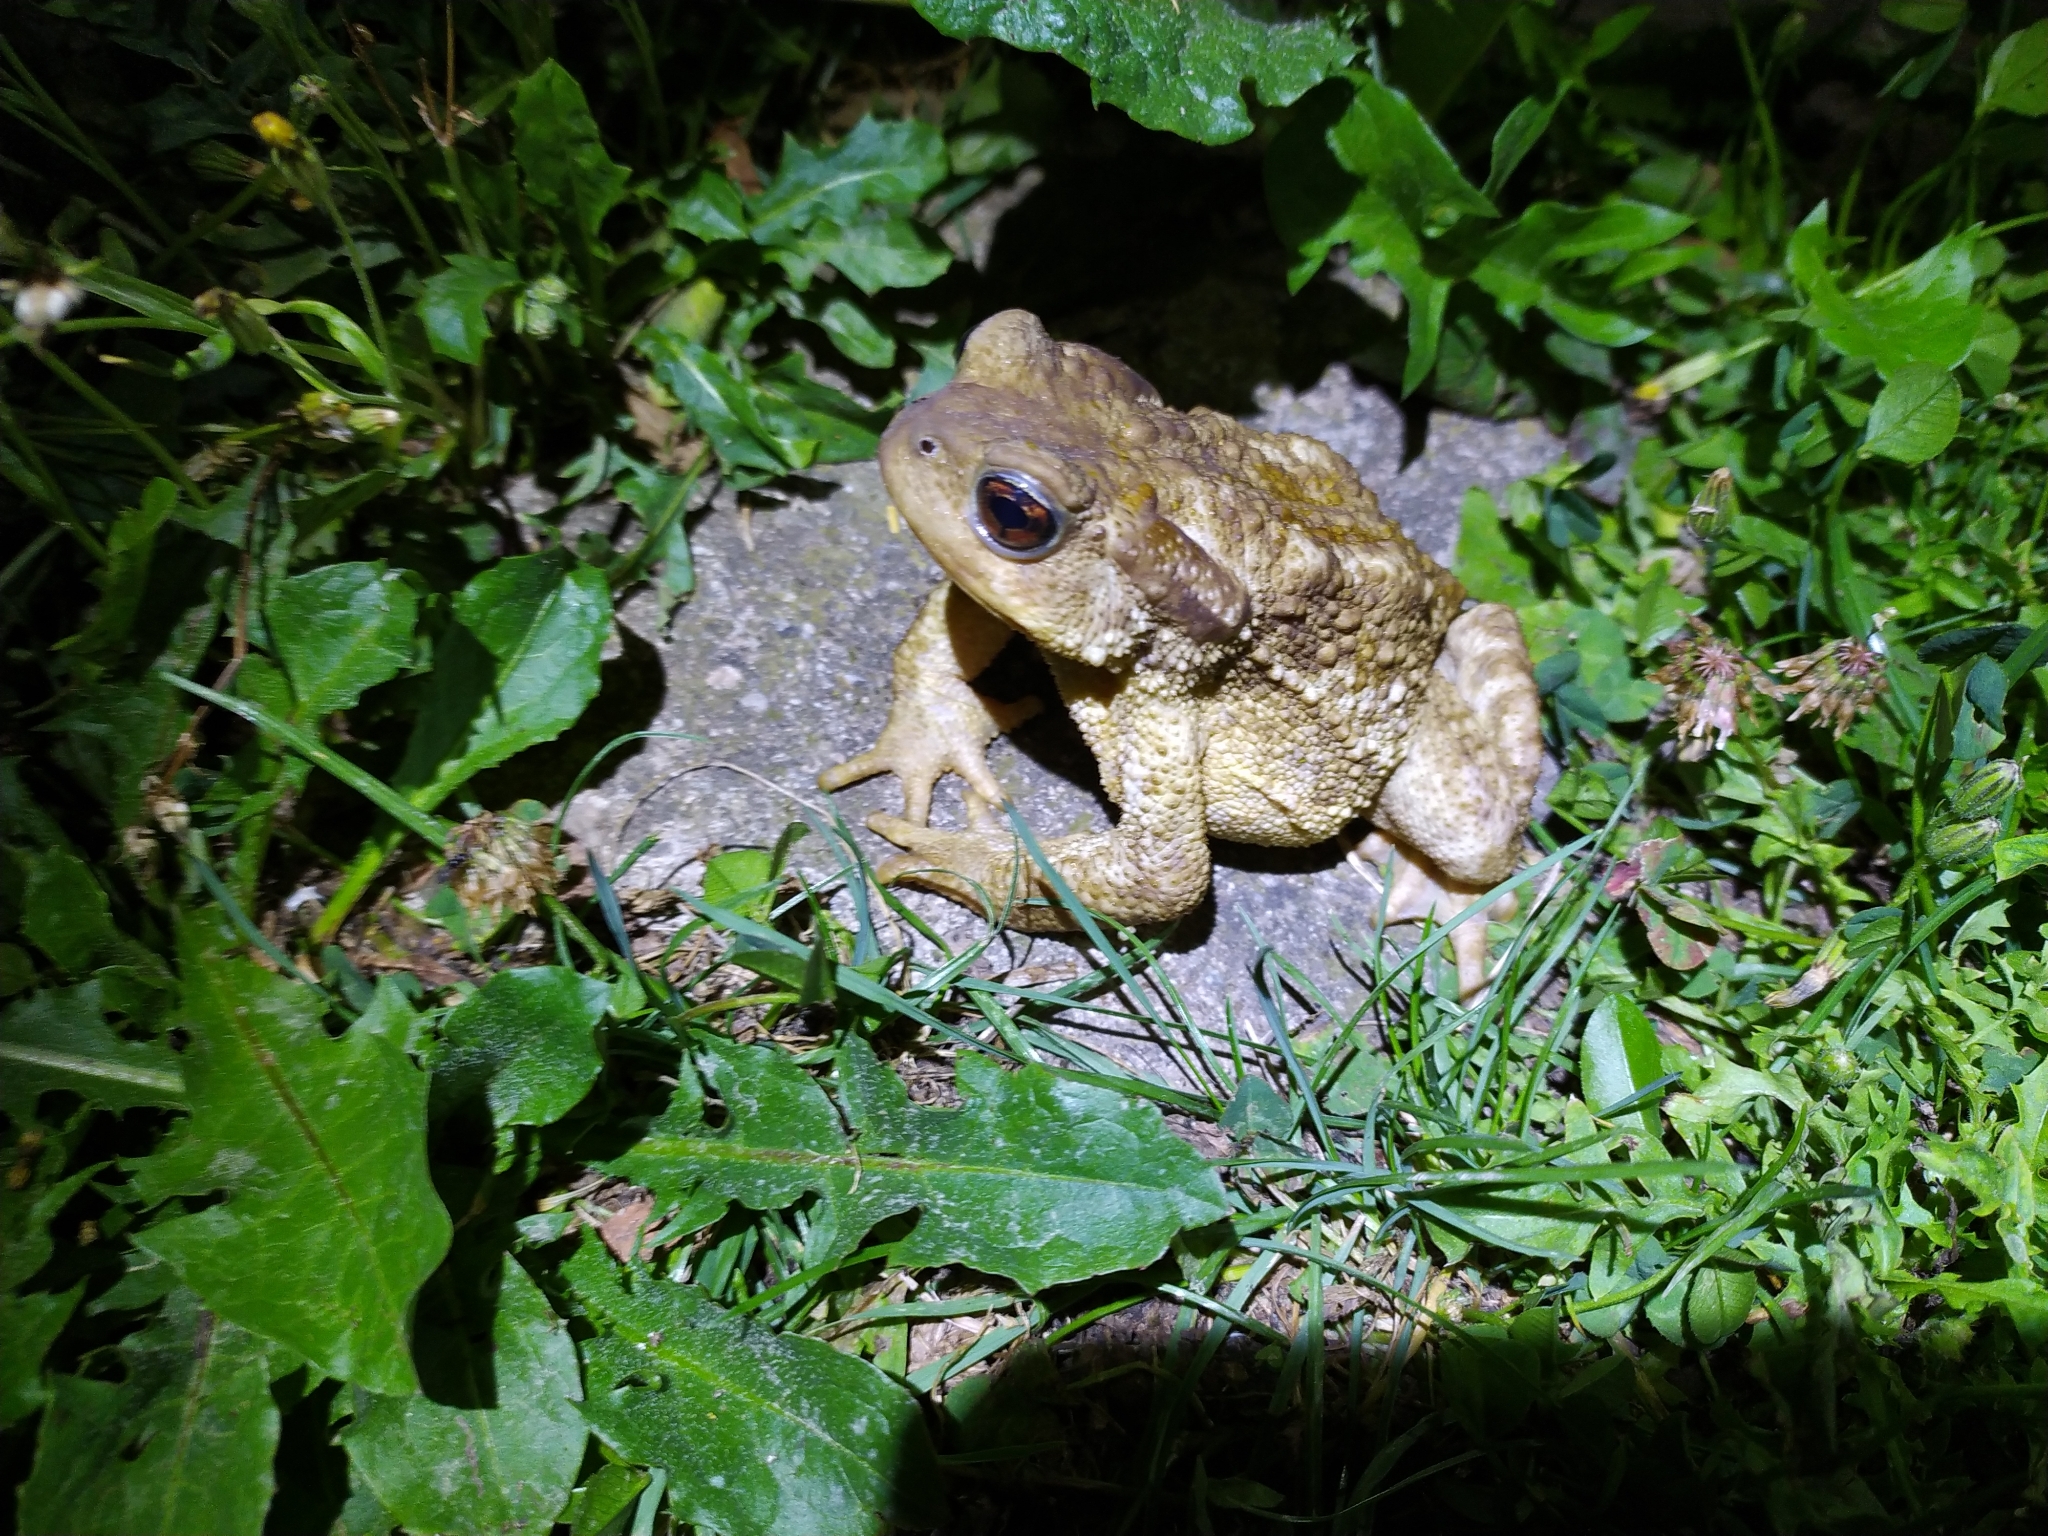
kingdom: Animalia
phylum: Chordata
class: Amphibia
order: Anura
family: Bufonidae
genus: Bufo
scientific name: Bufo spinosus
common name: Western common toad
